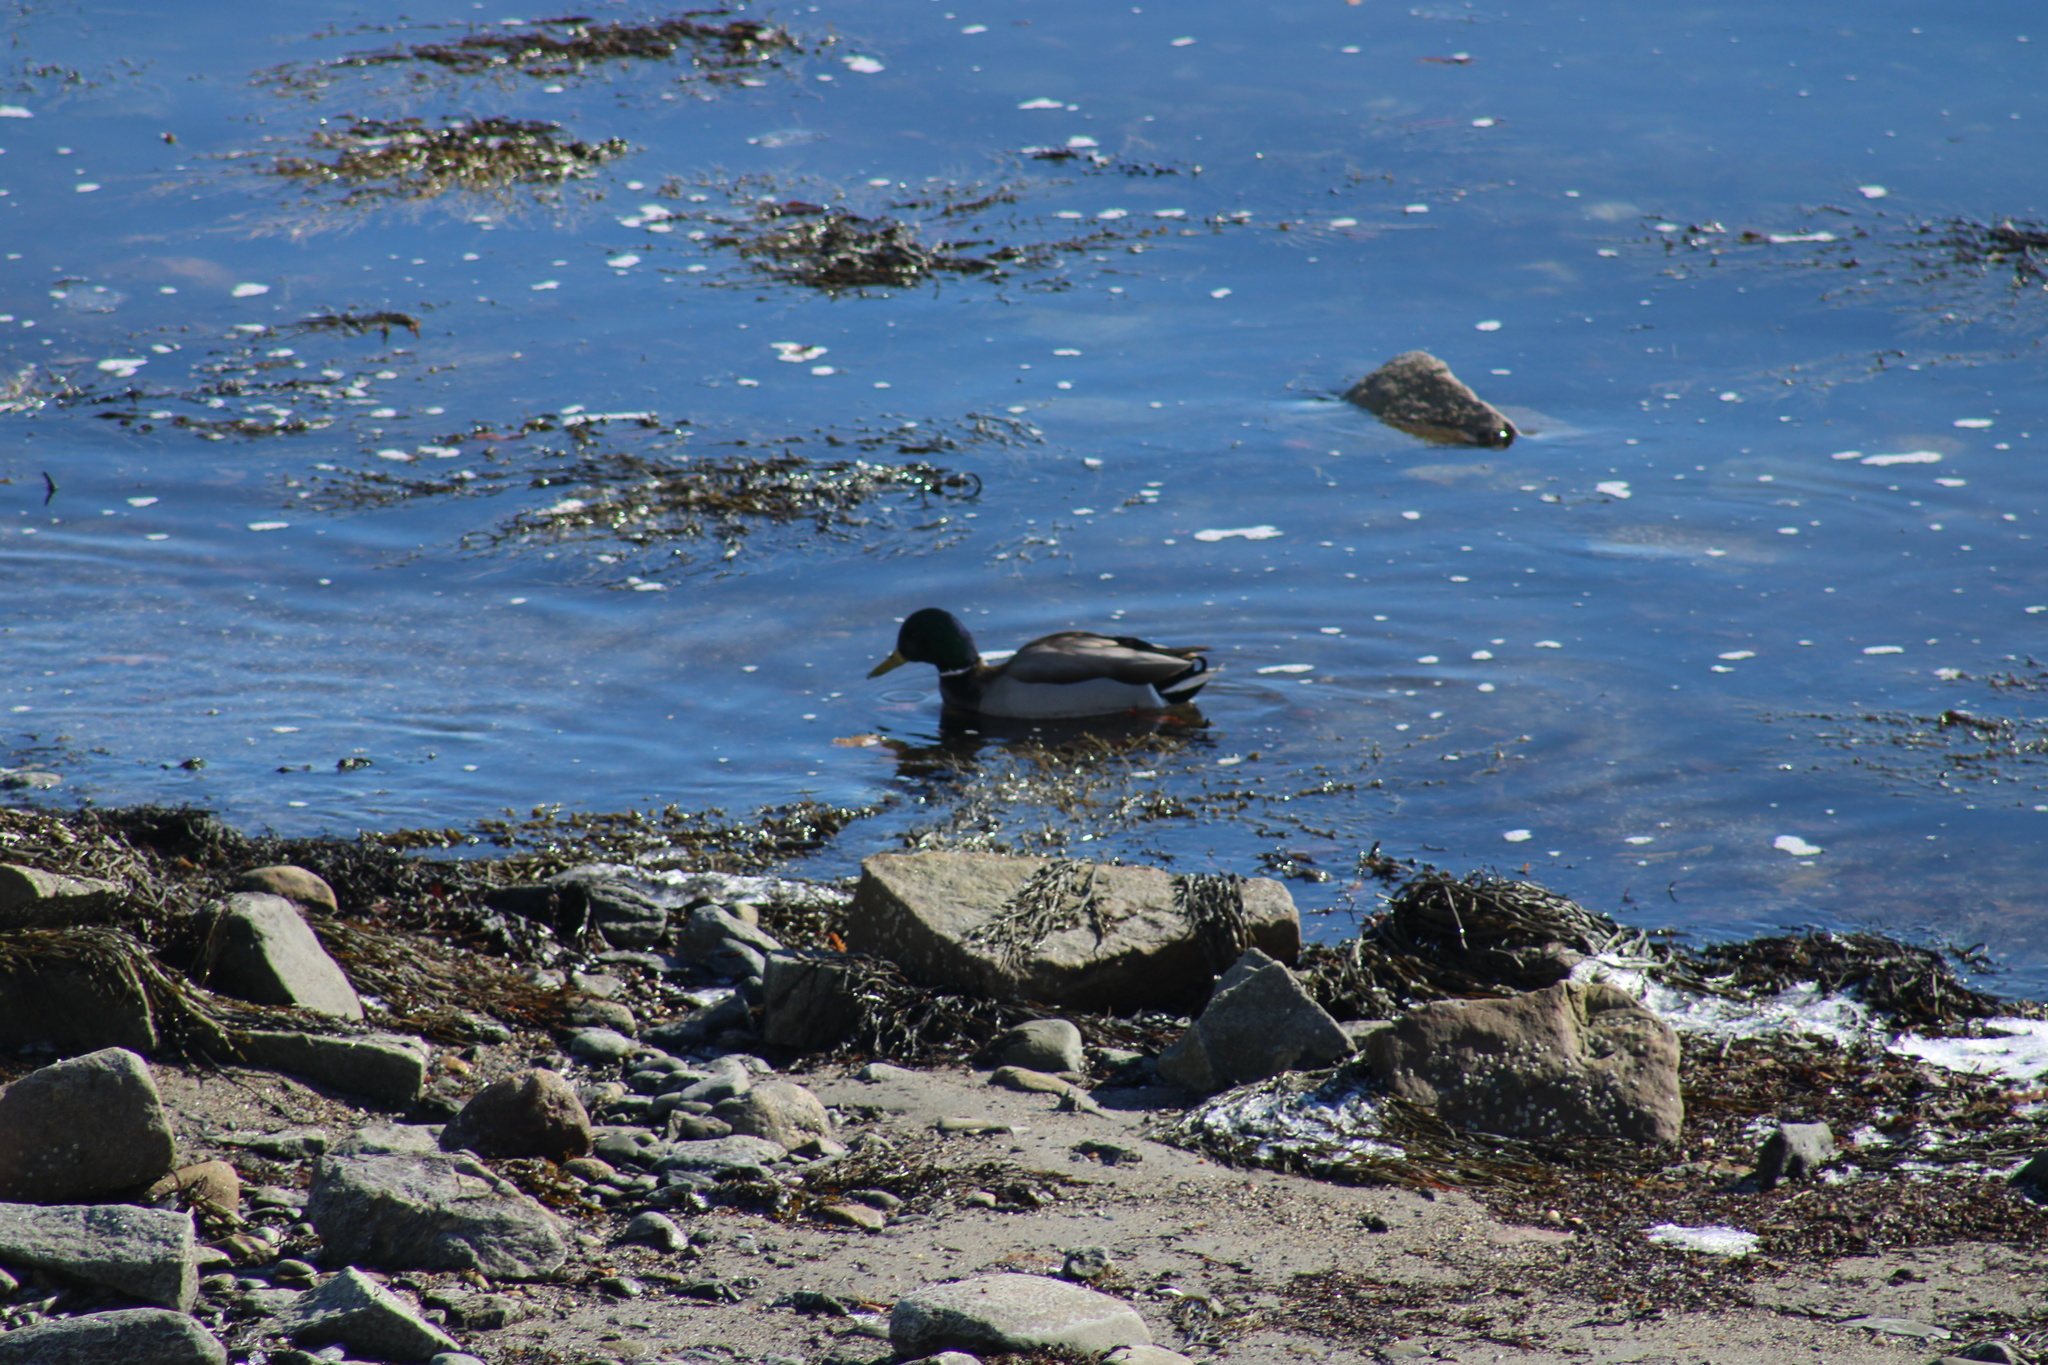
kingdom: Animalia
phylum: Chordata
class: Aves
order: Anseriformes
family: Anatidae
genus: Anas
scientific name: Anas platyrhynchos
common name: Mallard
